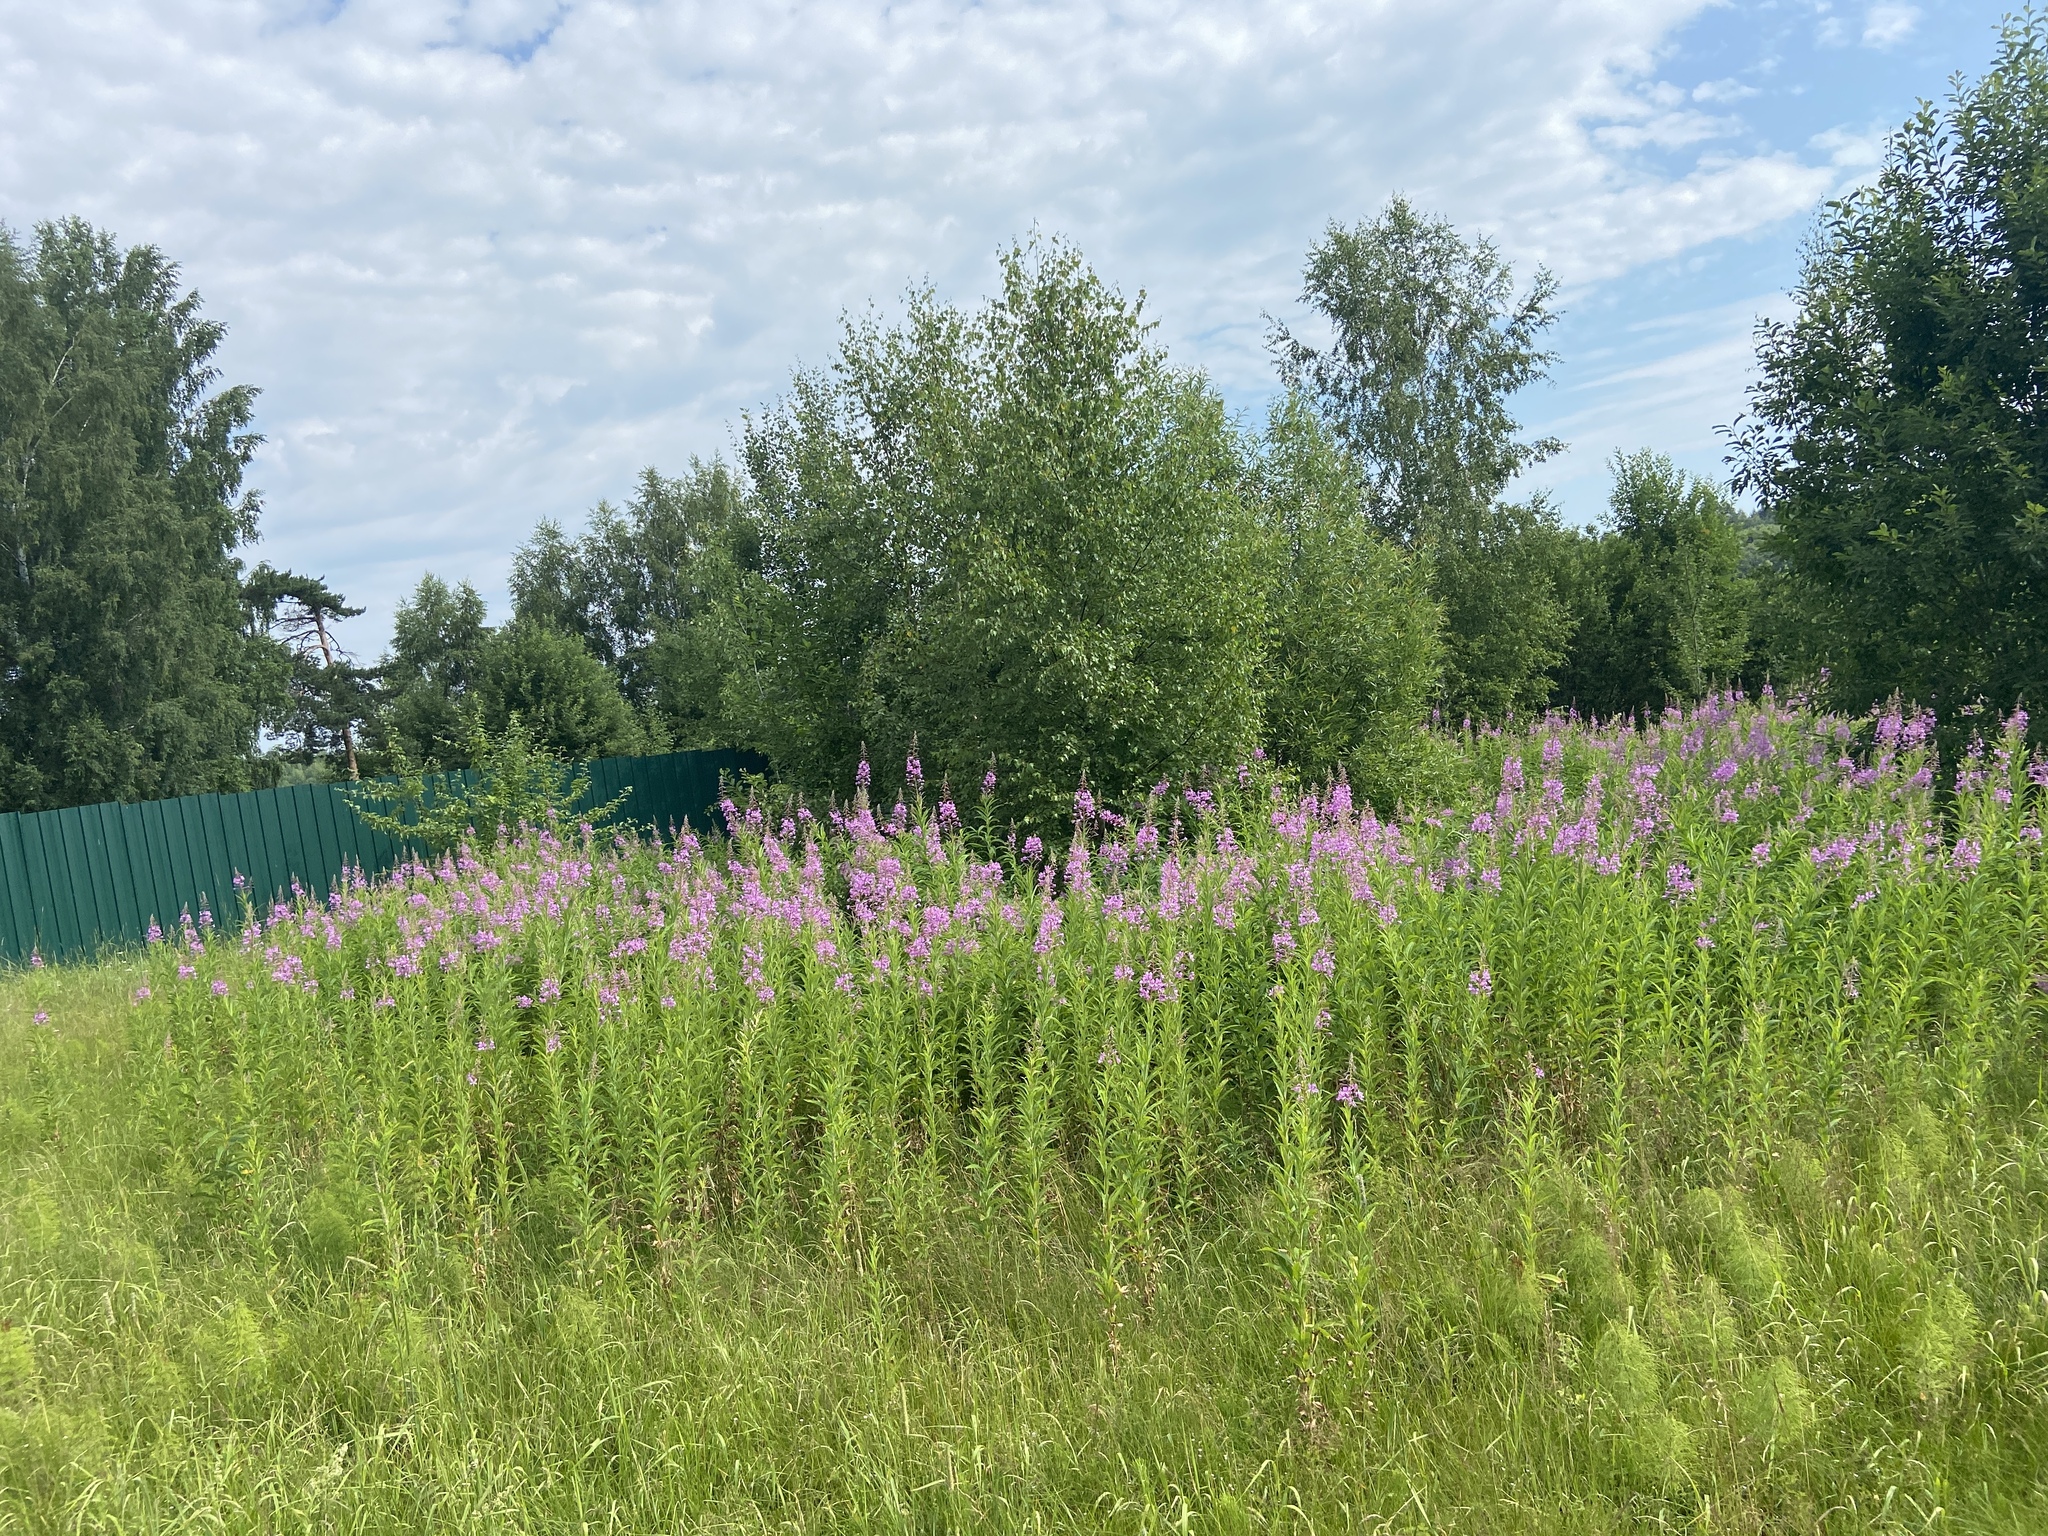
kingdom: Plantae
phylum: Tracheophyta
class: Magnoliopsida
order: Myrtales
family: Onagraceae
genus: Chamaenerion
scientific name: Chamaenerion angustifolium
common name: Fireweed
